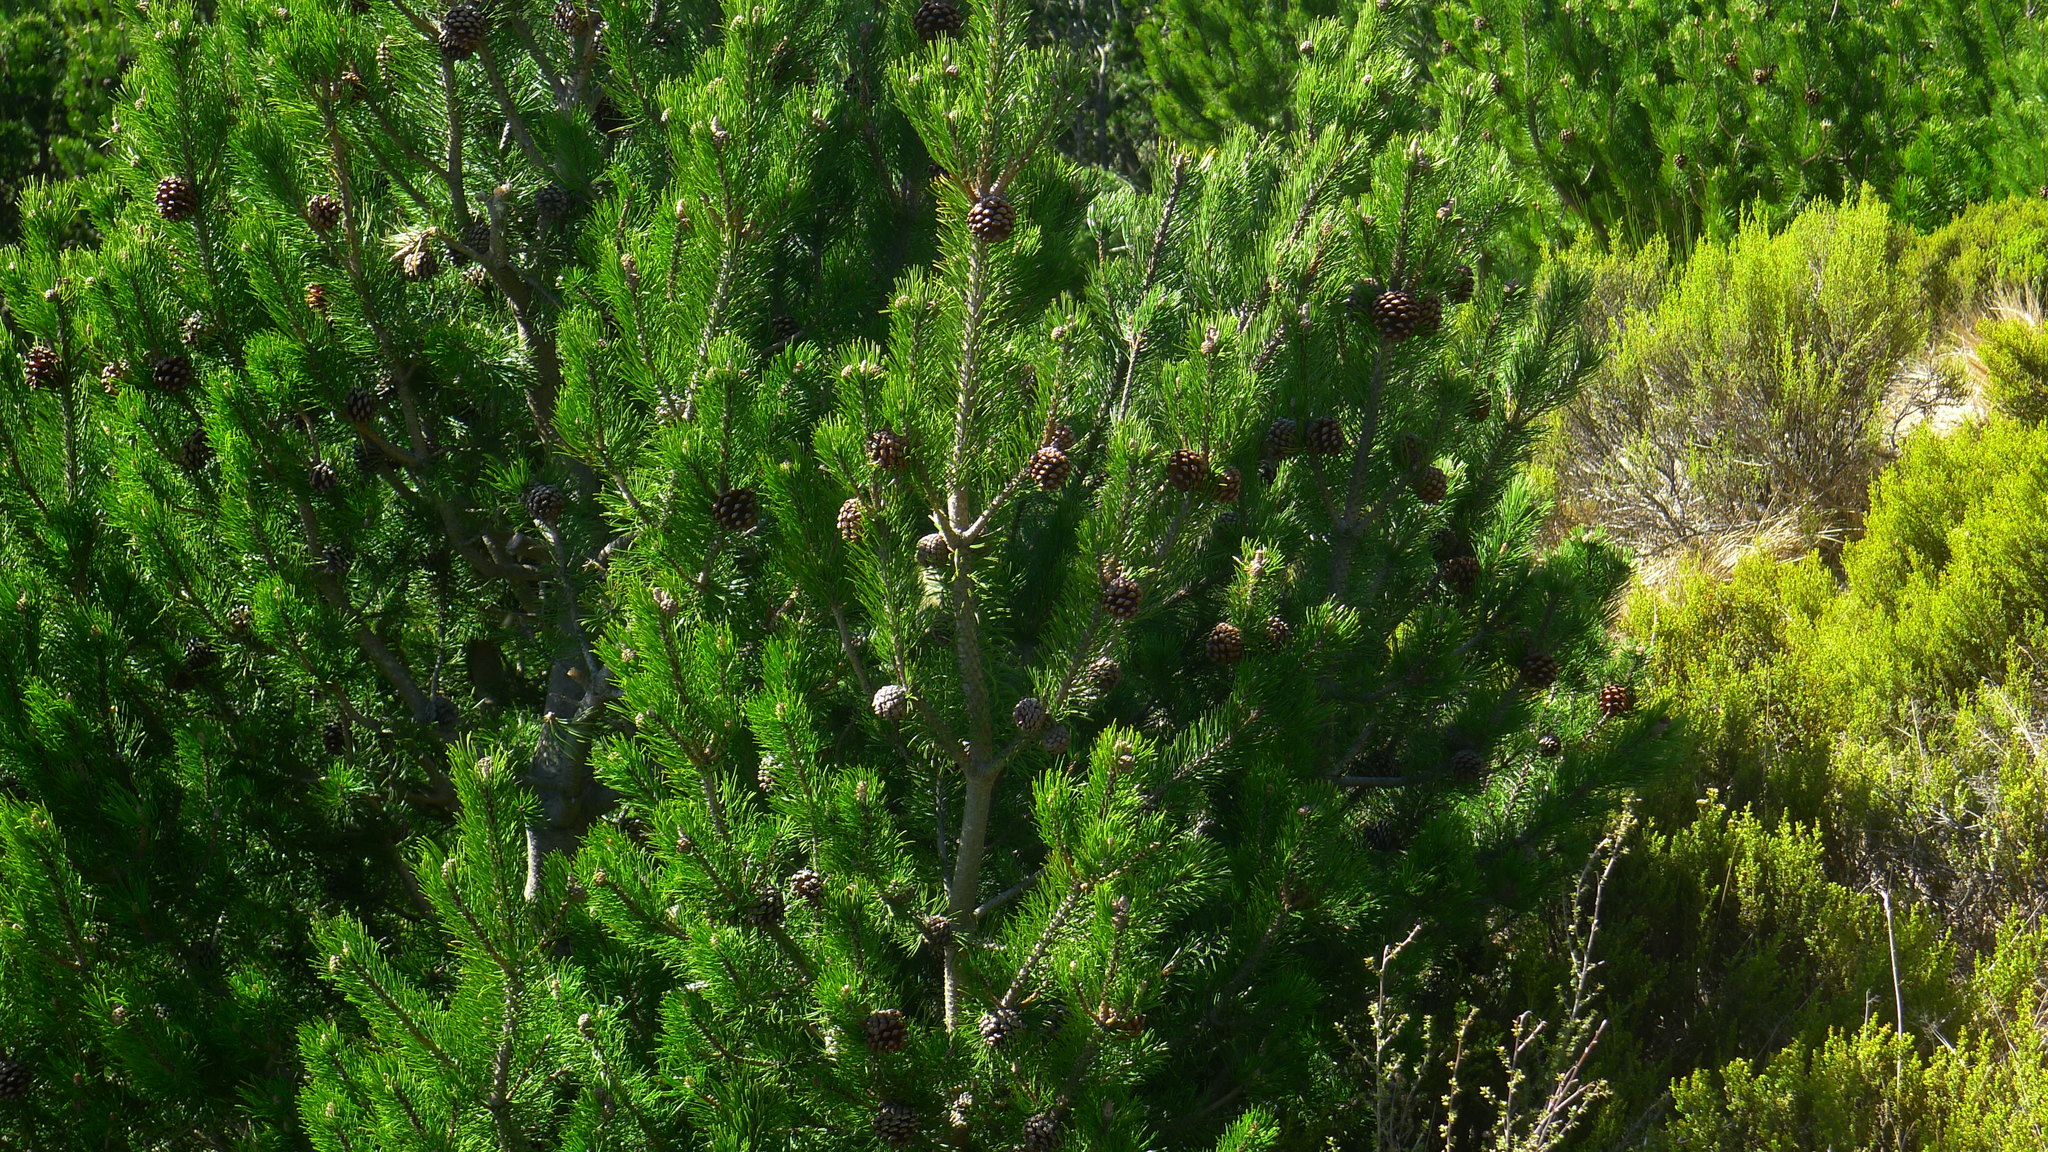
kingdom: Plantae
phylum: Tracheophyta
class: Pinopsida
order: Pinales
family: Pinaceae
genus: Pinus
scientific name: Pinus contorta
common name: Lodgepole pine
